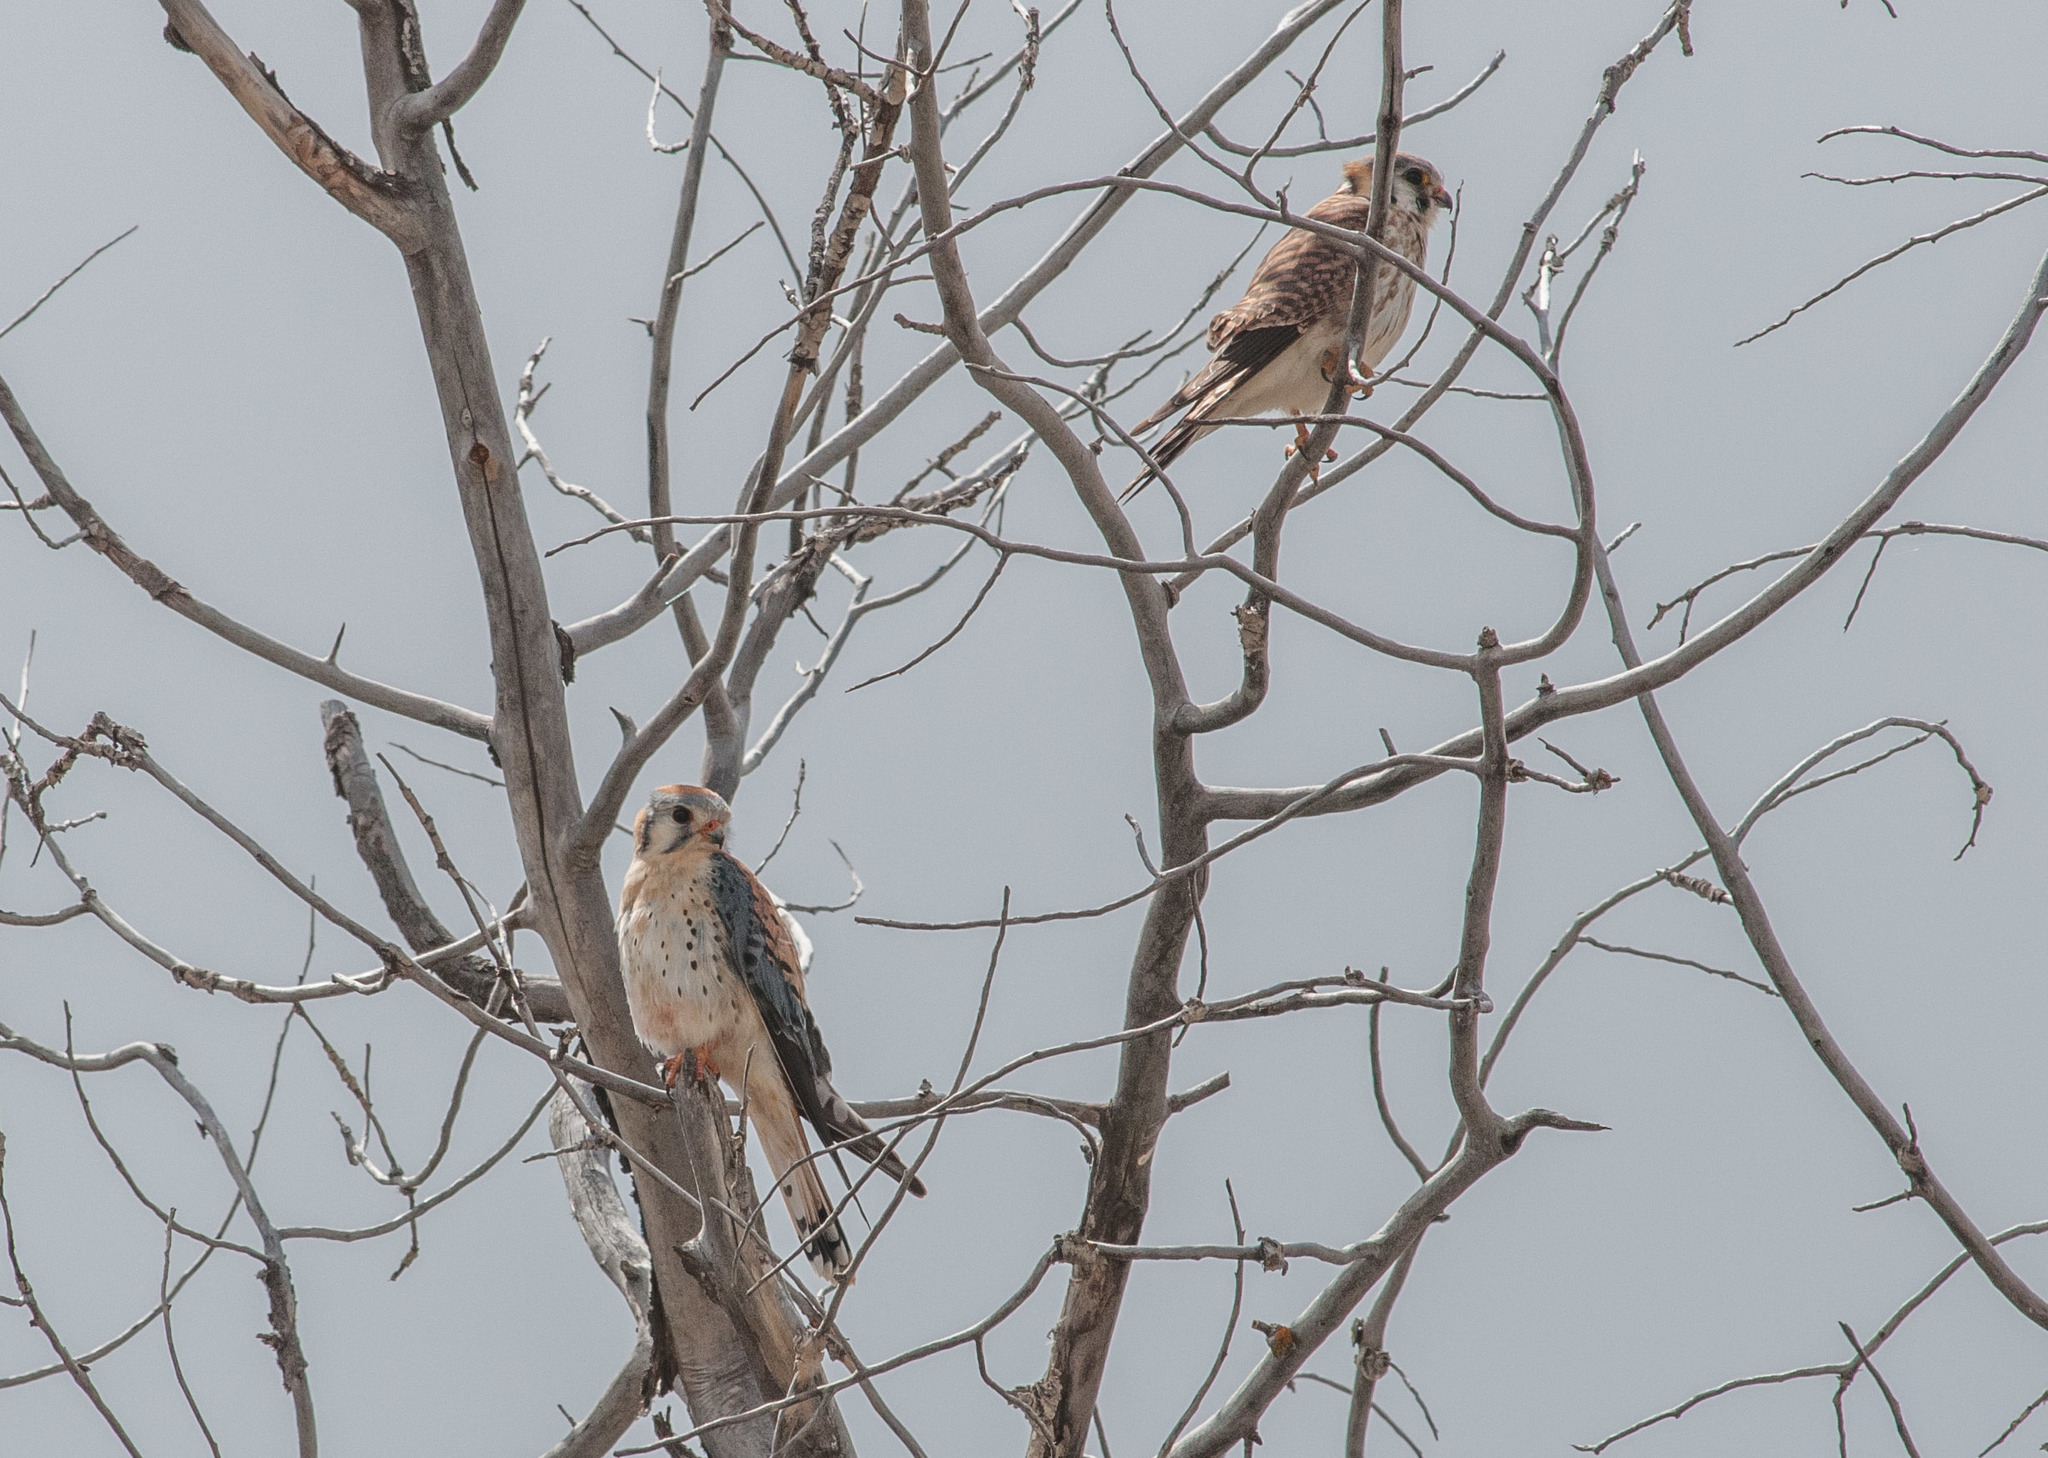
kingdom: Animalia
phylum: Chordata
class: Aves
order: Falconiformes
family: Falconidae
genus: Falco
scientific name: Falco sparverius
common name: American kestrel
